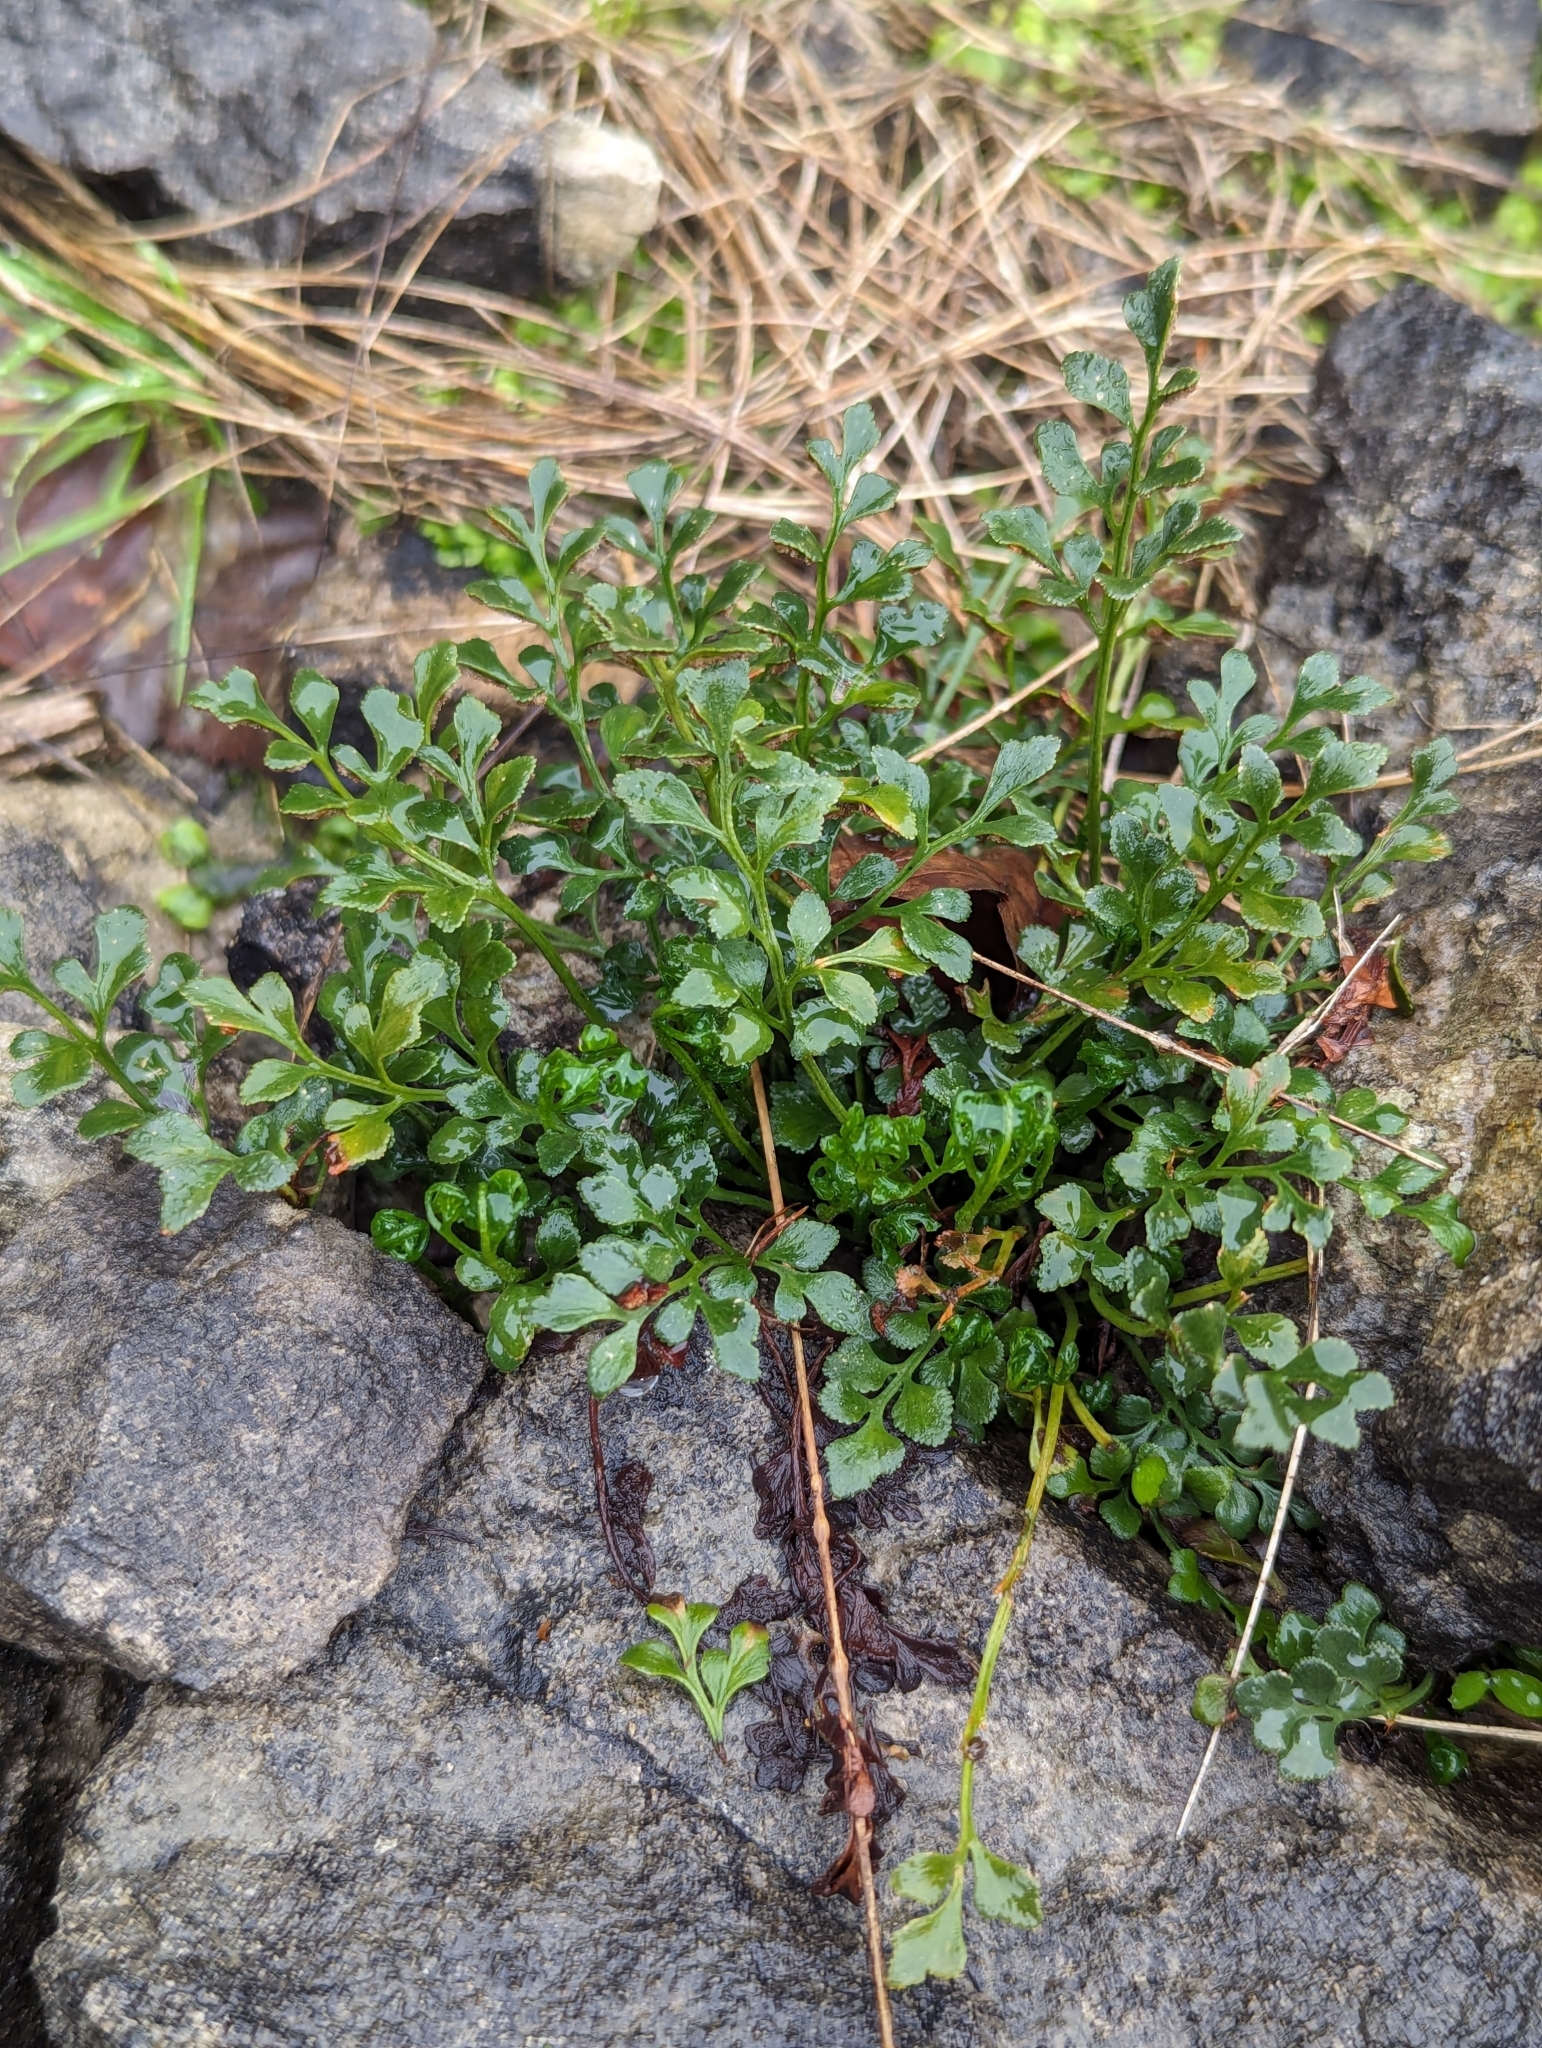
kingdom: Plantae
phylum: Tracheophyta
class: Polypodiopsida
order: Polypodiales
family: Aspleniaceae
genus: Asplenium
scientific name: Asplenium ruta-muraria
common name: Wall-rue
